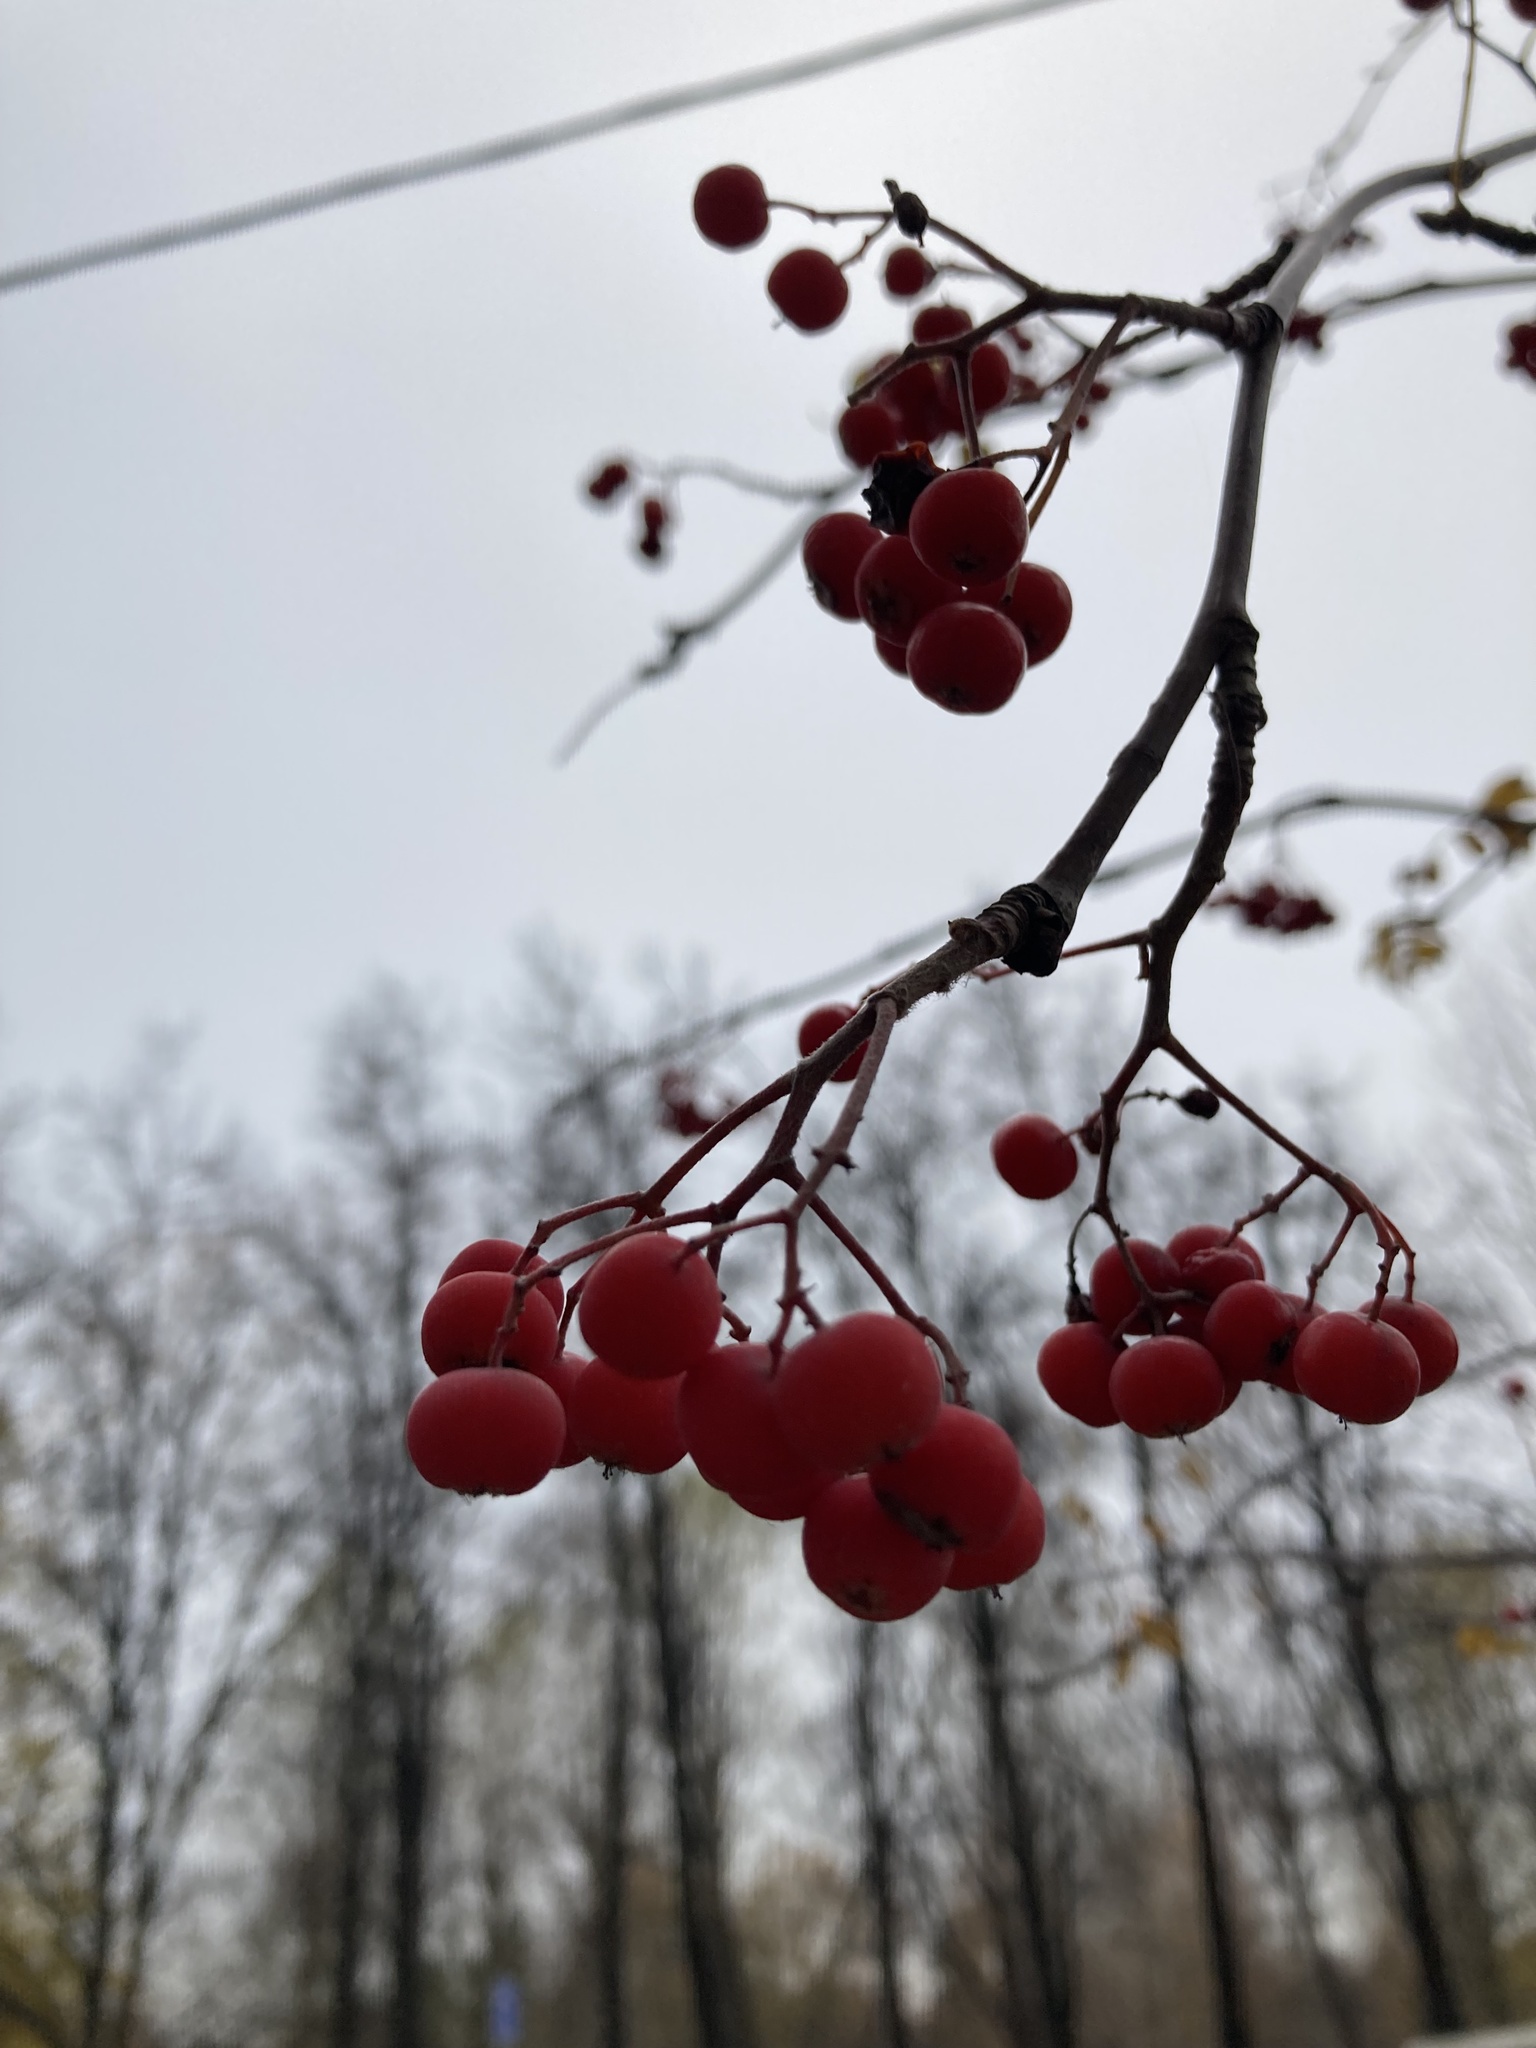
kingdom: Plantae
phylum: Tracheophyta
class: Magnoliopsida
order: Rosales
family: Rosaceae
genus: Sorbus
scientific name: Sorbus aucuparia
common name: Rowan
